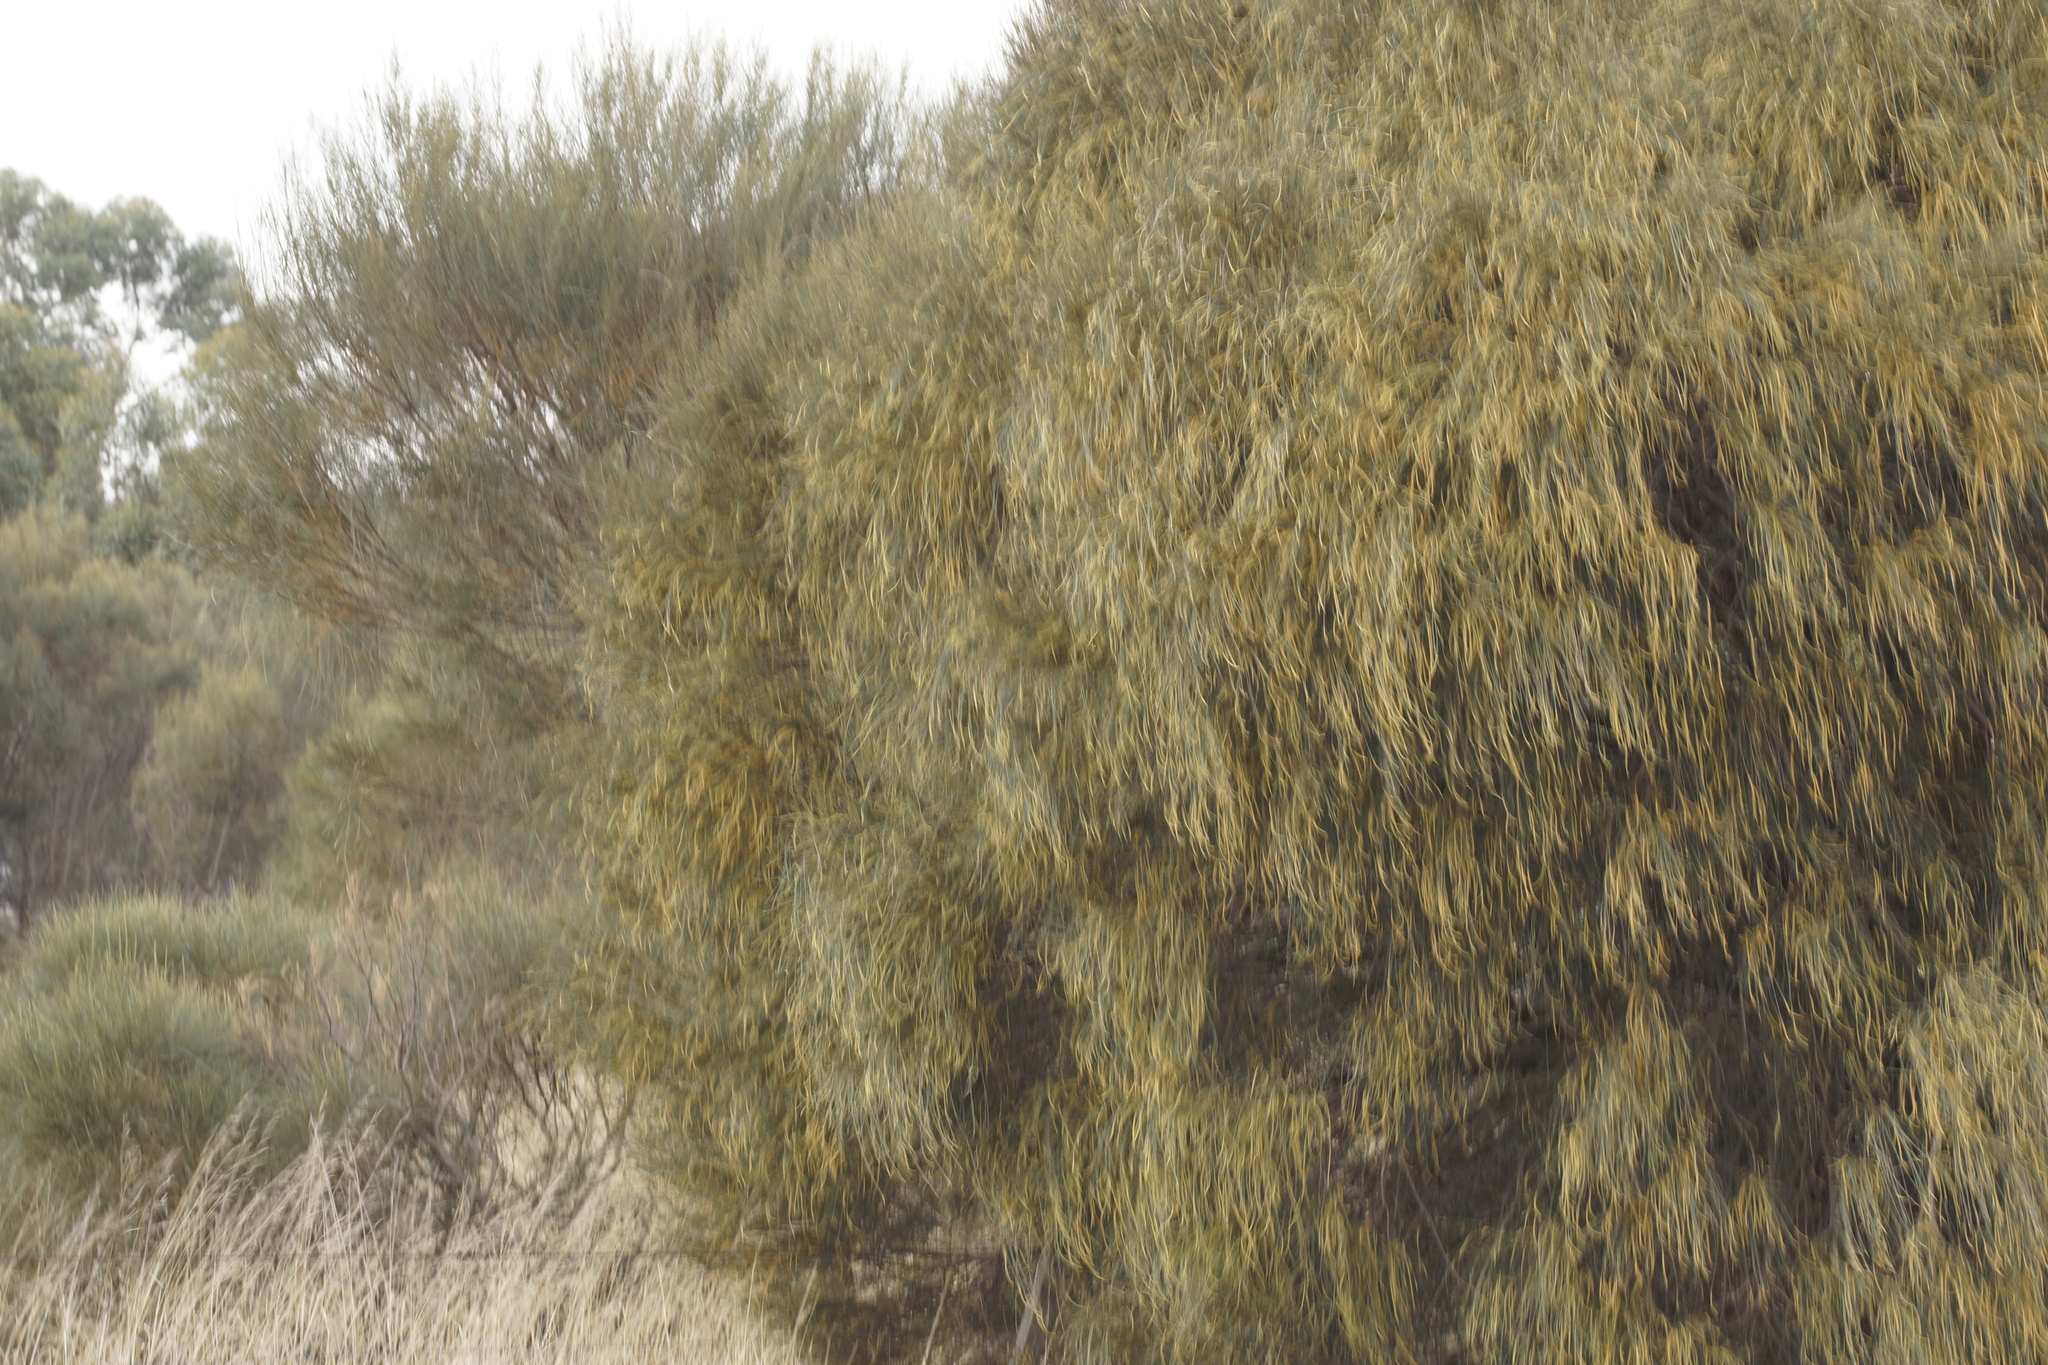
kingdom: Plantae
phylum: Tracheophyta
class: Magnoliopsida
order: Fagales
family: Casuarinaceae
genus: Allocasuarina
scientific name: Allocasuarina verticillata
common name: Drooping she-oak
